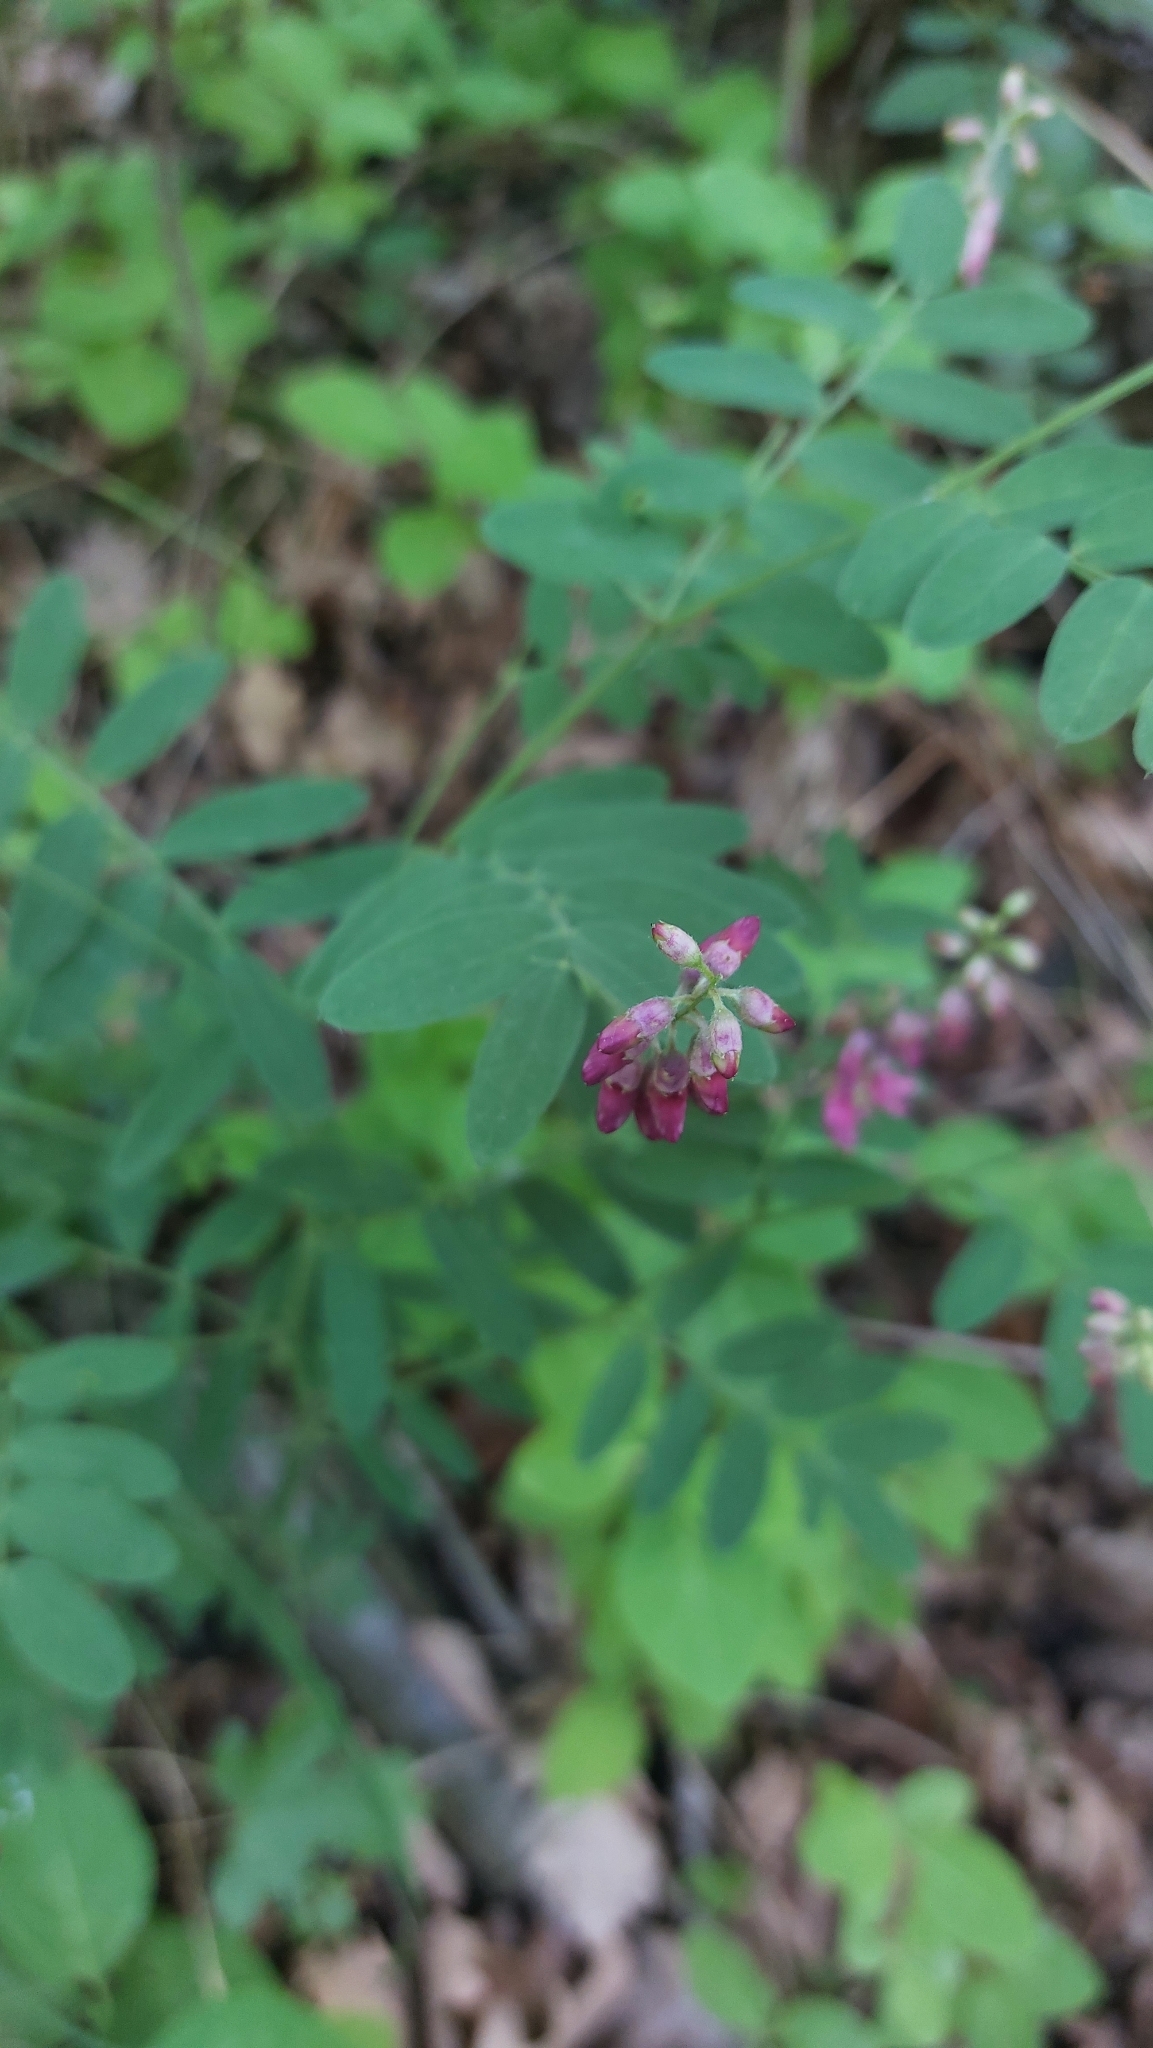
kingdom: Plantae
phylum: Tracheophyta
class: Magnoliopsida
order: Fabales
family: Fabaceae
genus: Lathyrus
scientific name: Lathyrus niger
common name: Black pea
